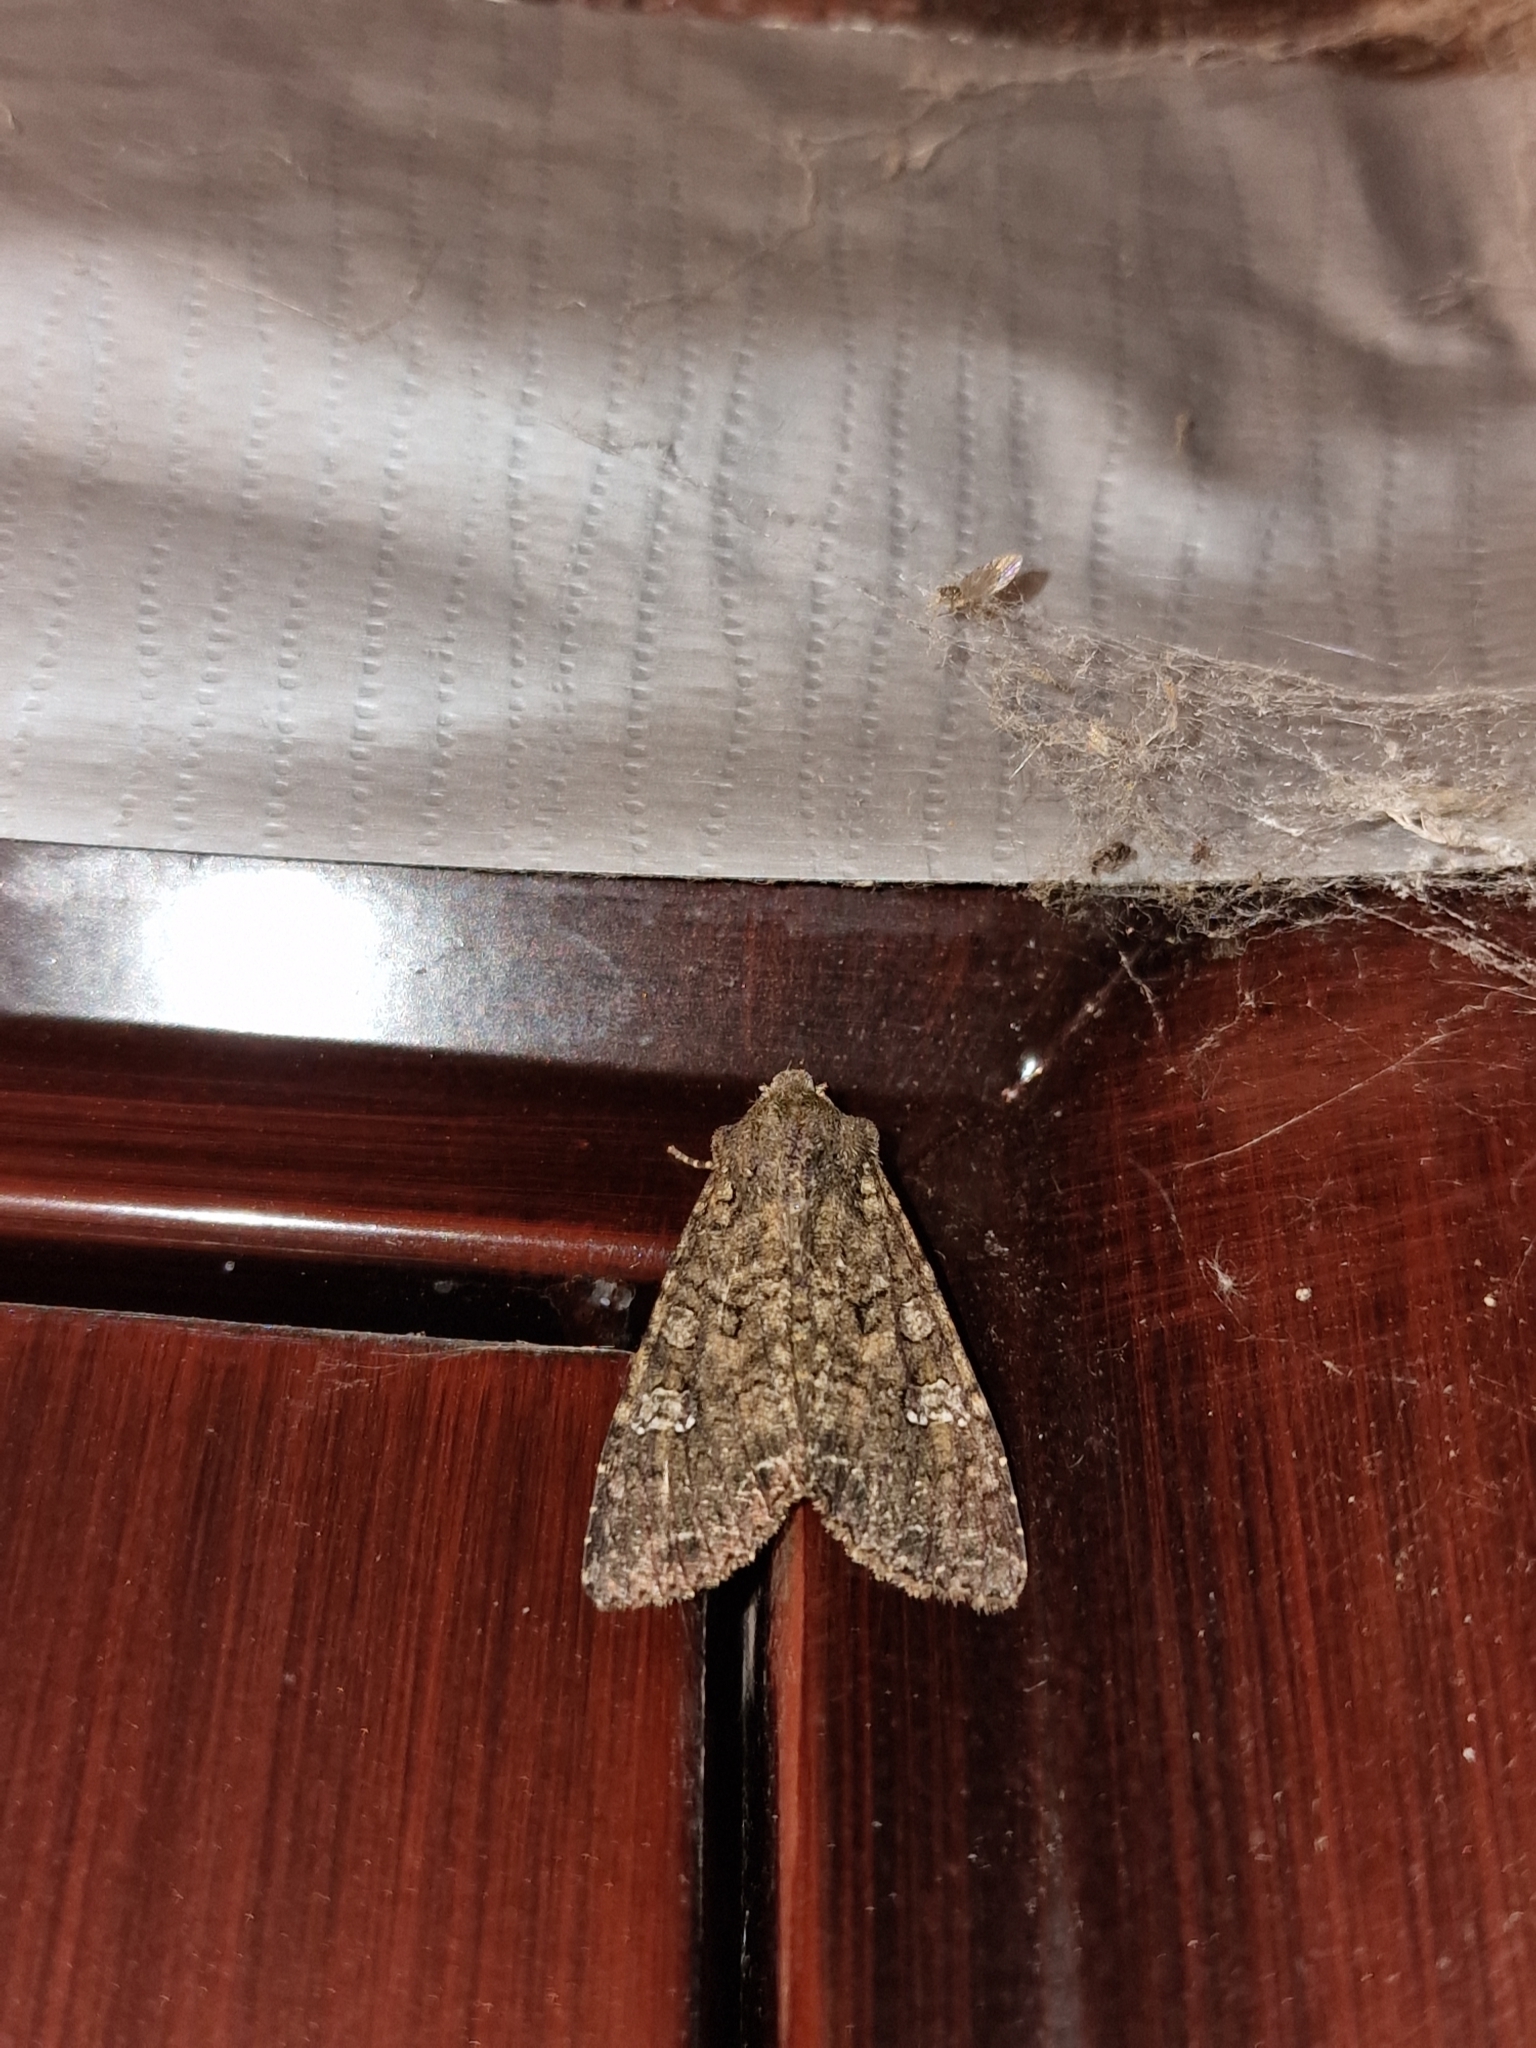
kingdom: Animalia
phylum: Arthropoda
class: Insecta
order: Lepidoptera
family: Noctuidae
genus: Mamestra
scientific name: Mamestra brassicae
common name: Cabbage moth
